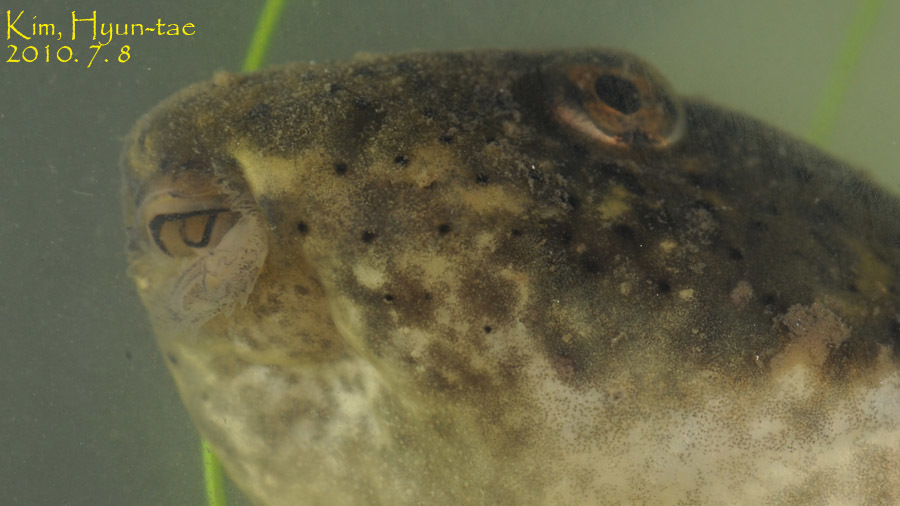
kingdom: Animalia
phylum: Chordata
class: Amphibia
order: Anura
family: Ranidae
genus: Lithobates
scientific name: Lithobates catesbeianus
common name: American bullfrog
